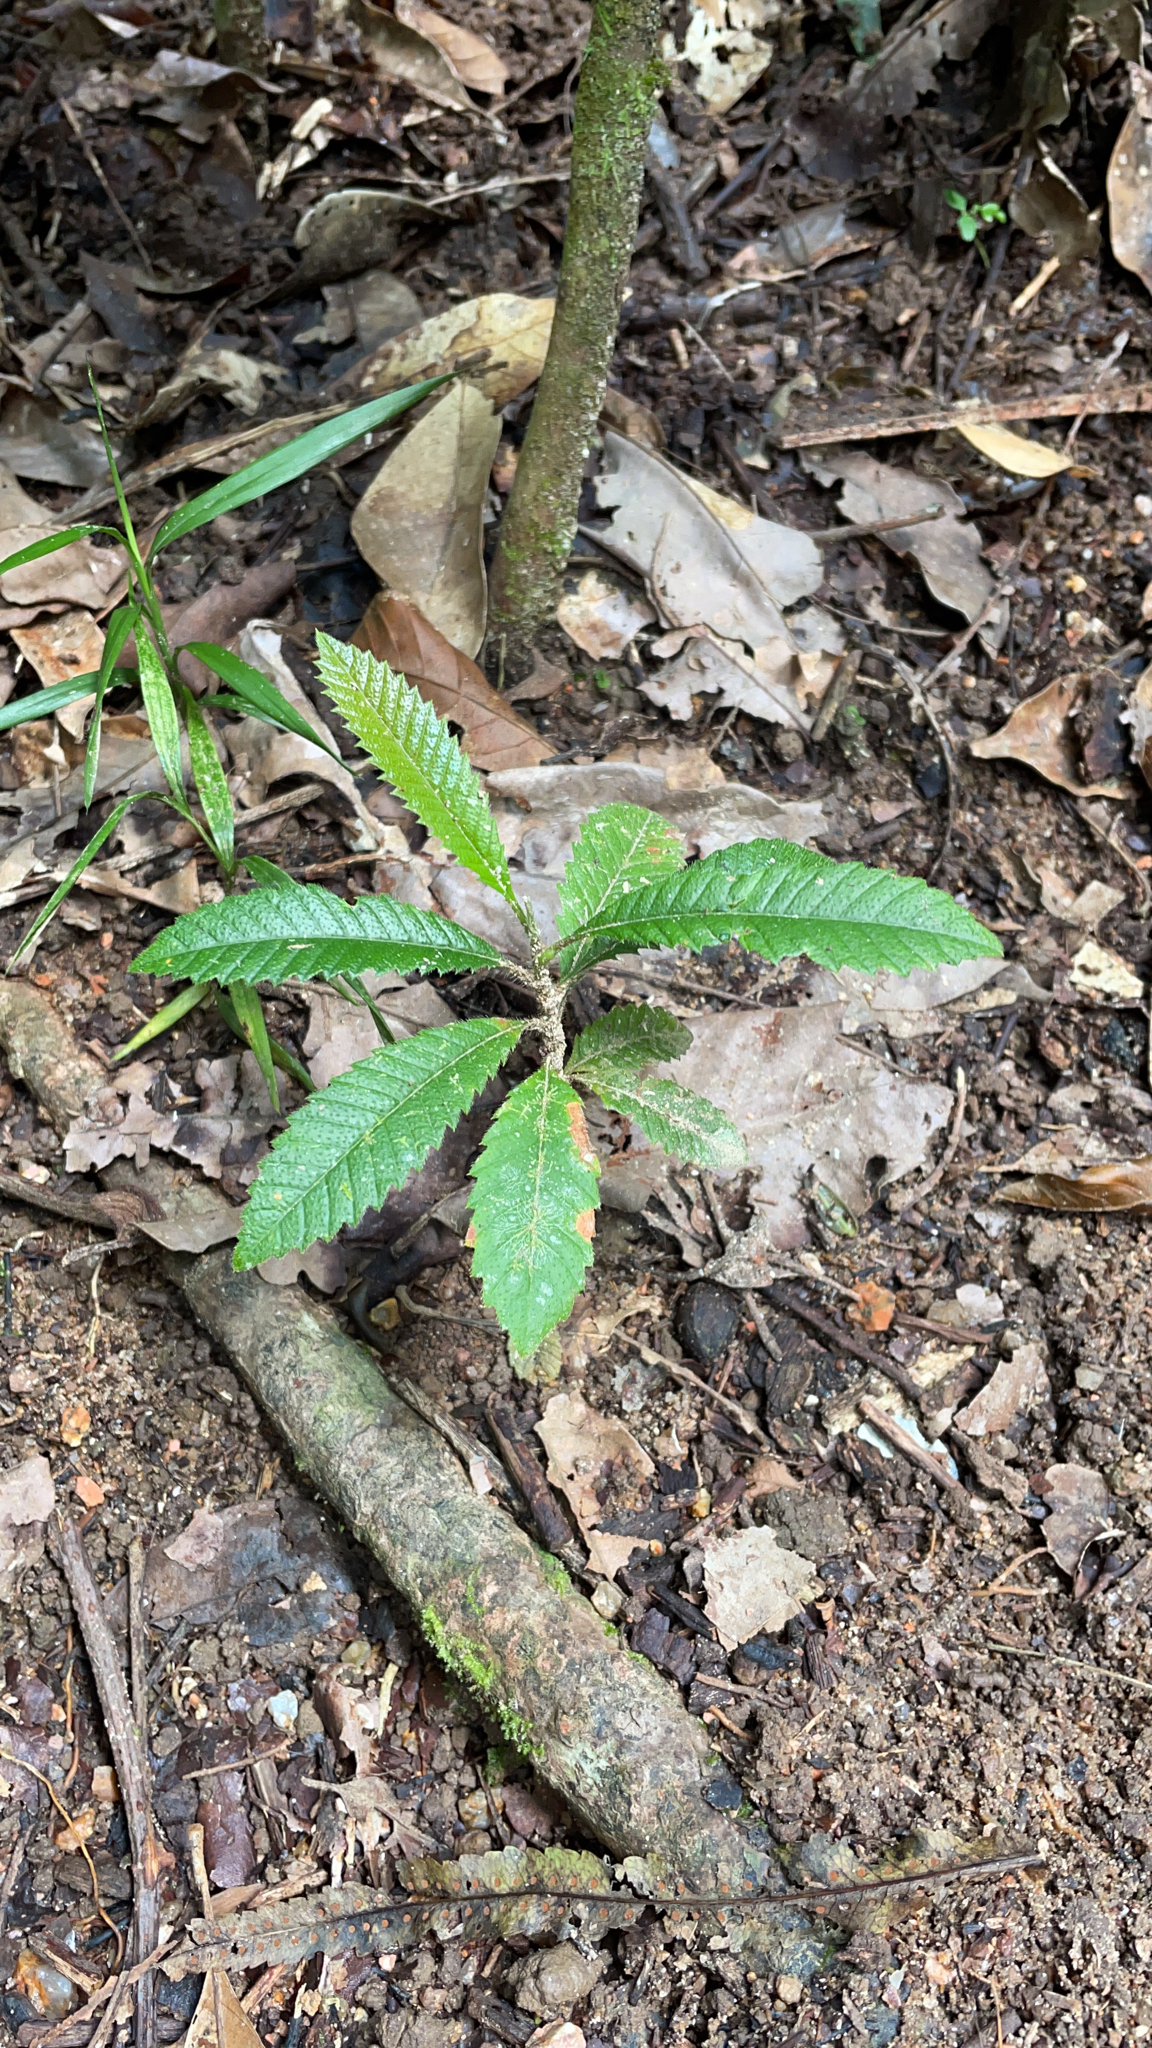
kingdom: Plantae
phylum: Tracheophyta
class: Magnoliopsida
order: Dilleniales
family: Dilleniaceae
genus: Tetracera
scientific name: Tetracera nordtiana
